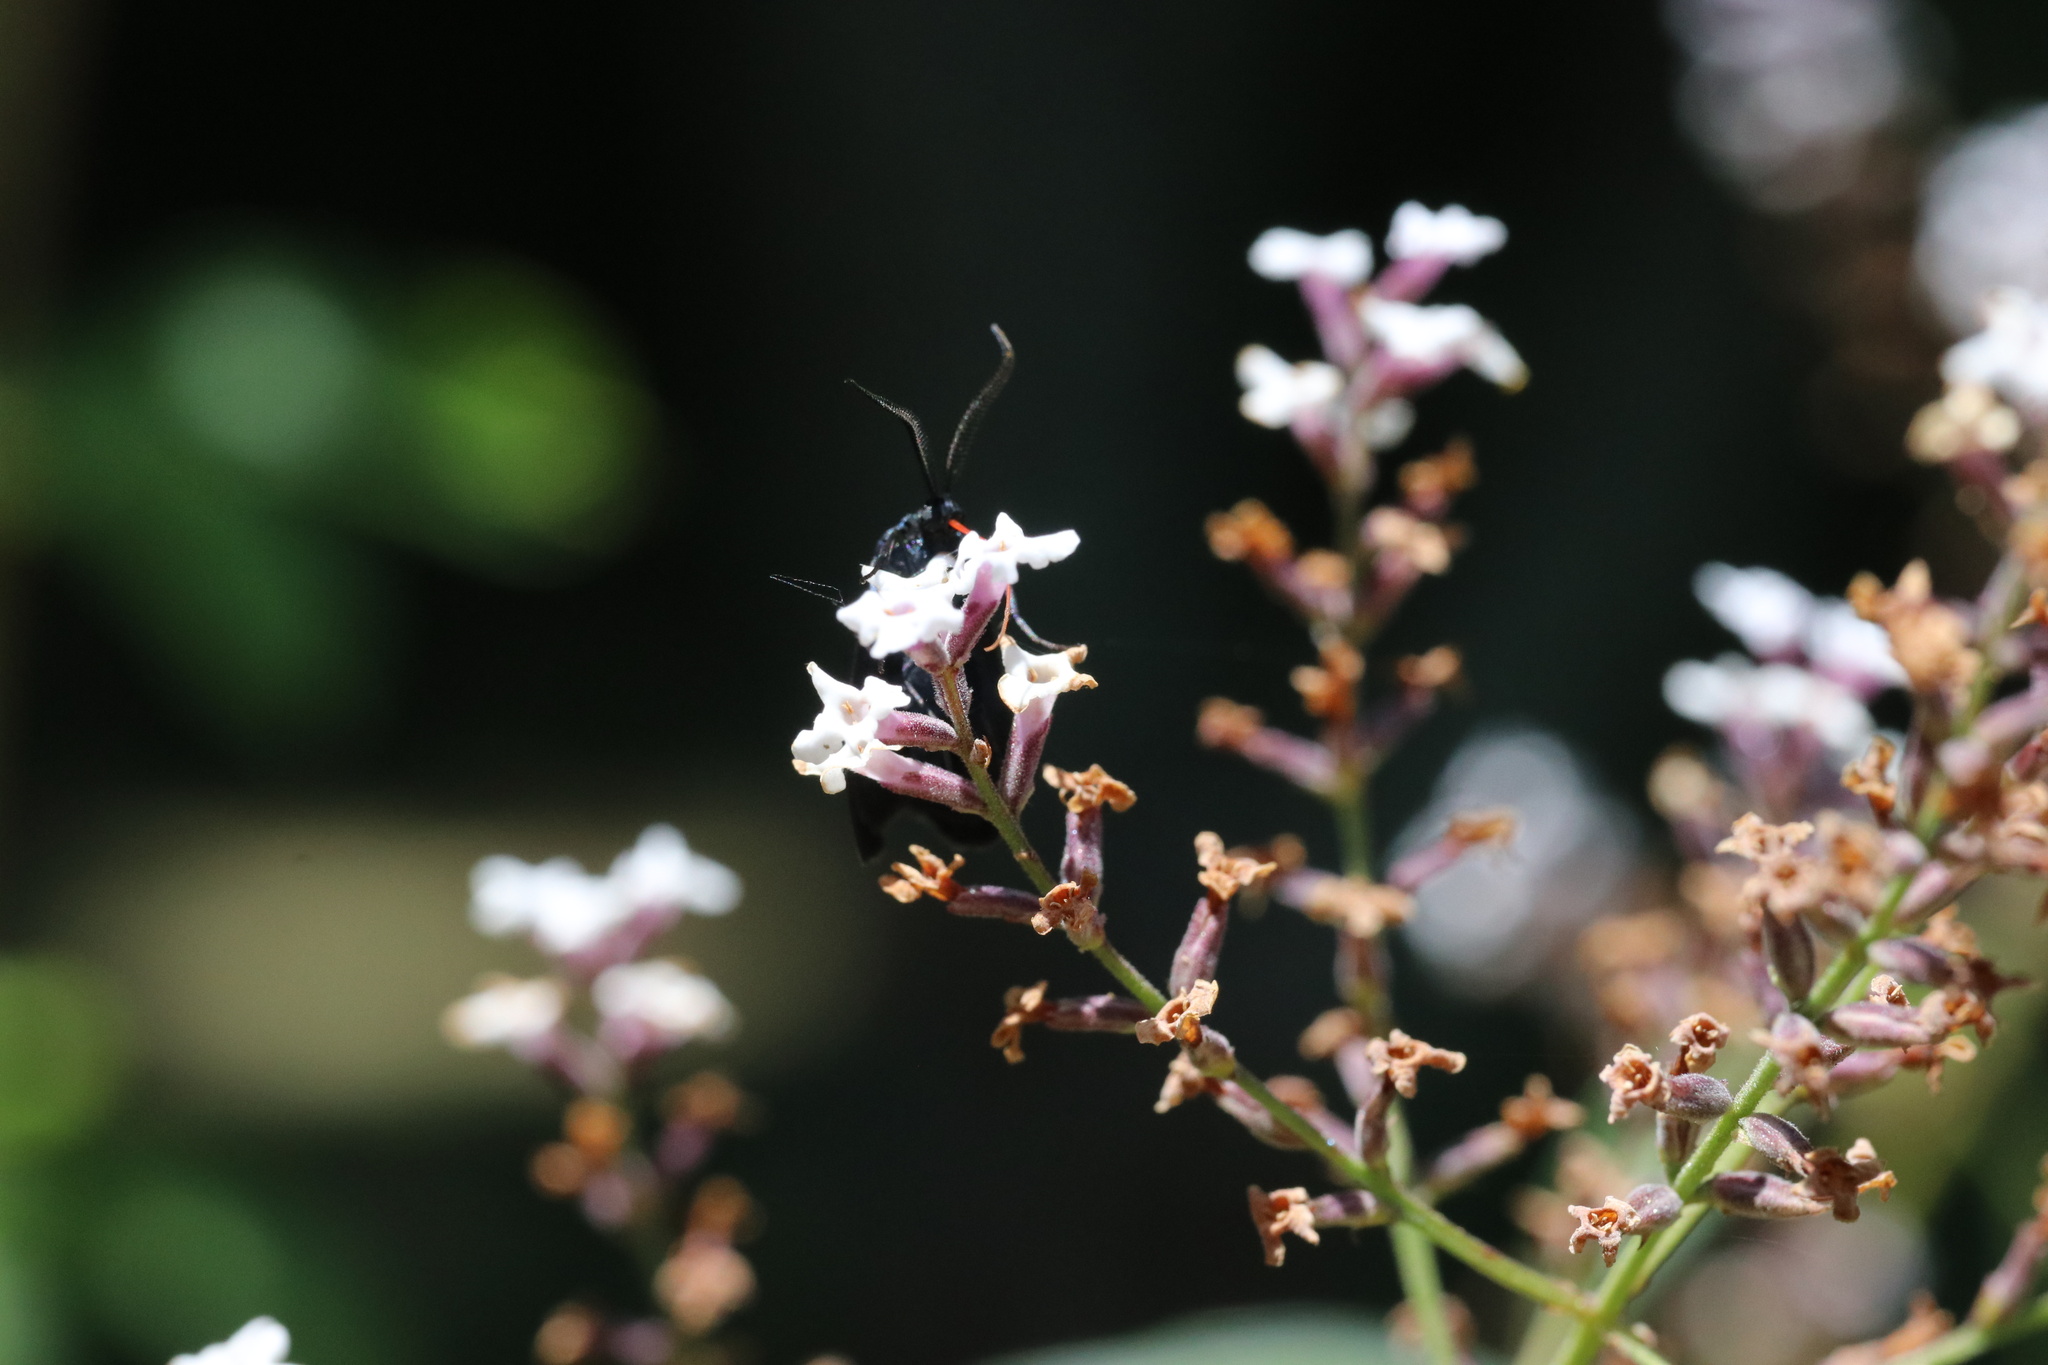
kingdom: Animalia
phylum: Arthropoda
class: Insecta
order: Lepidoptera
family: Zygaenidae
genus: Malamblia
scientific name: Malamblia
